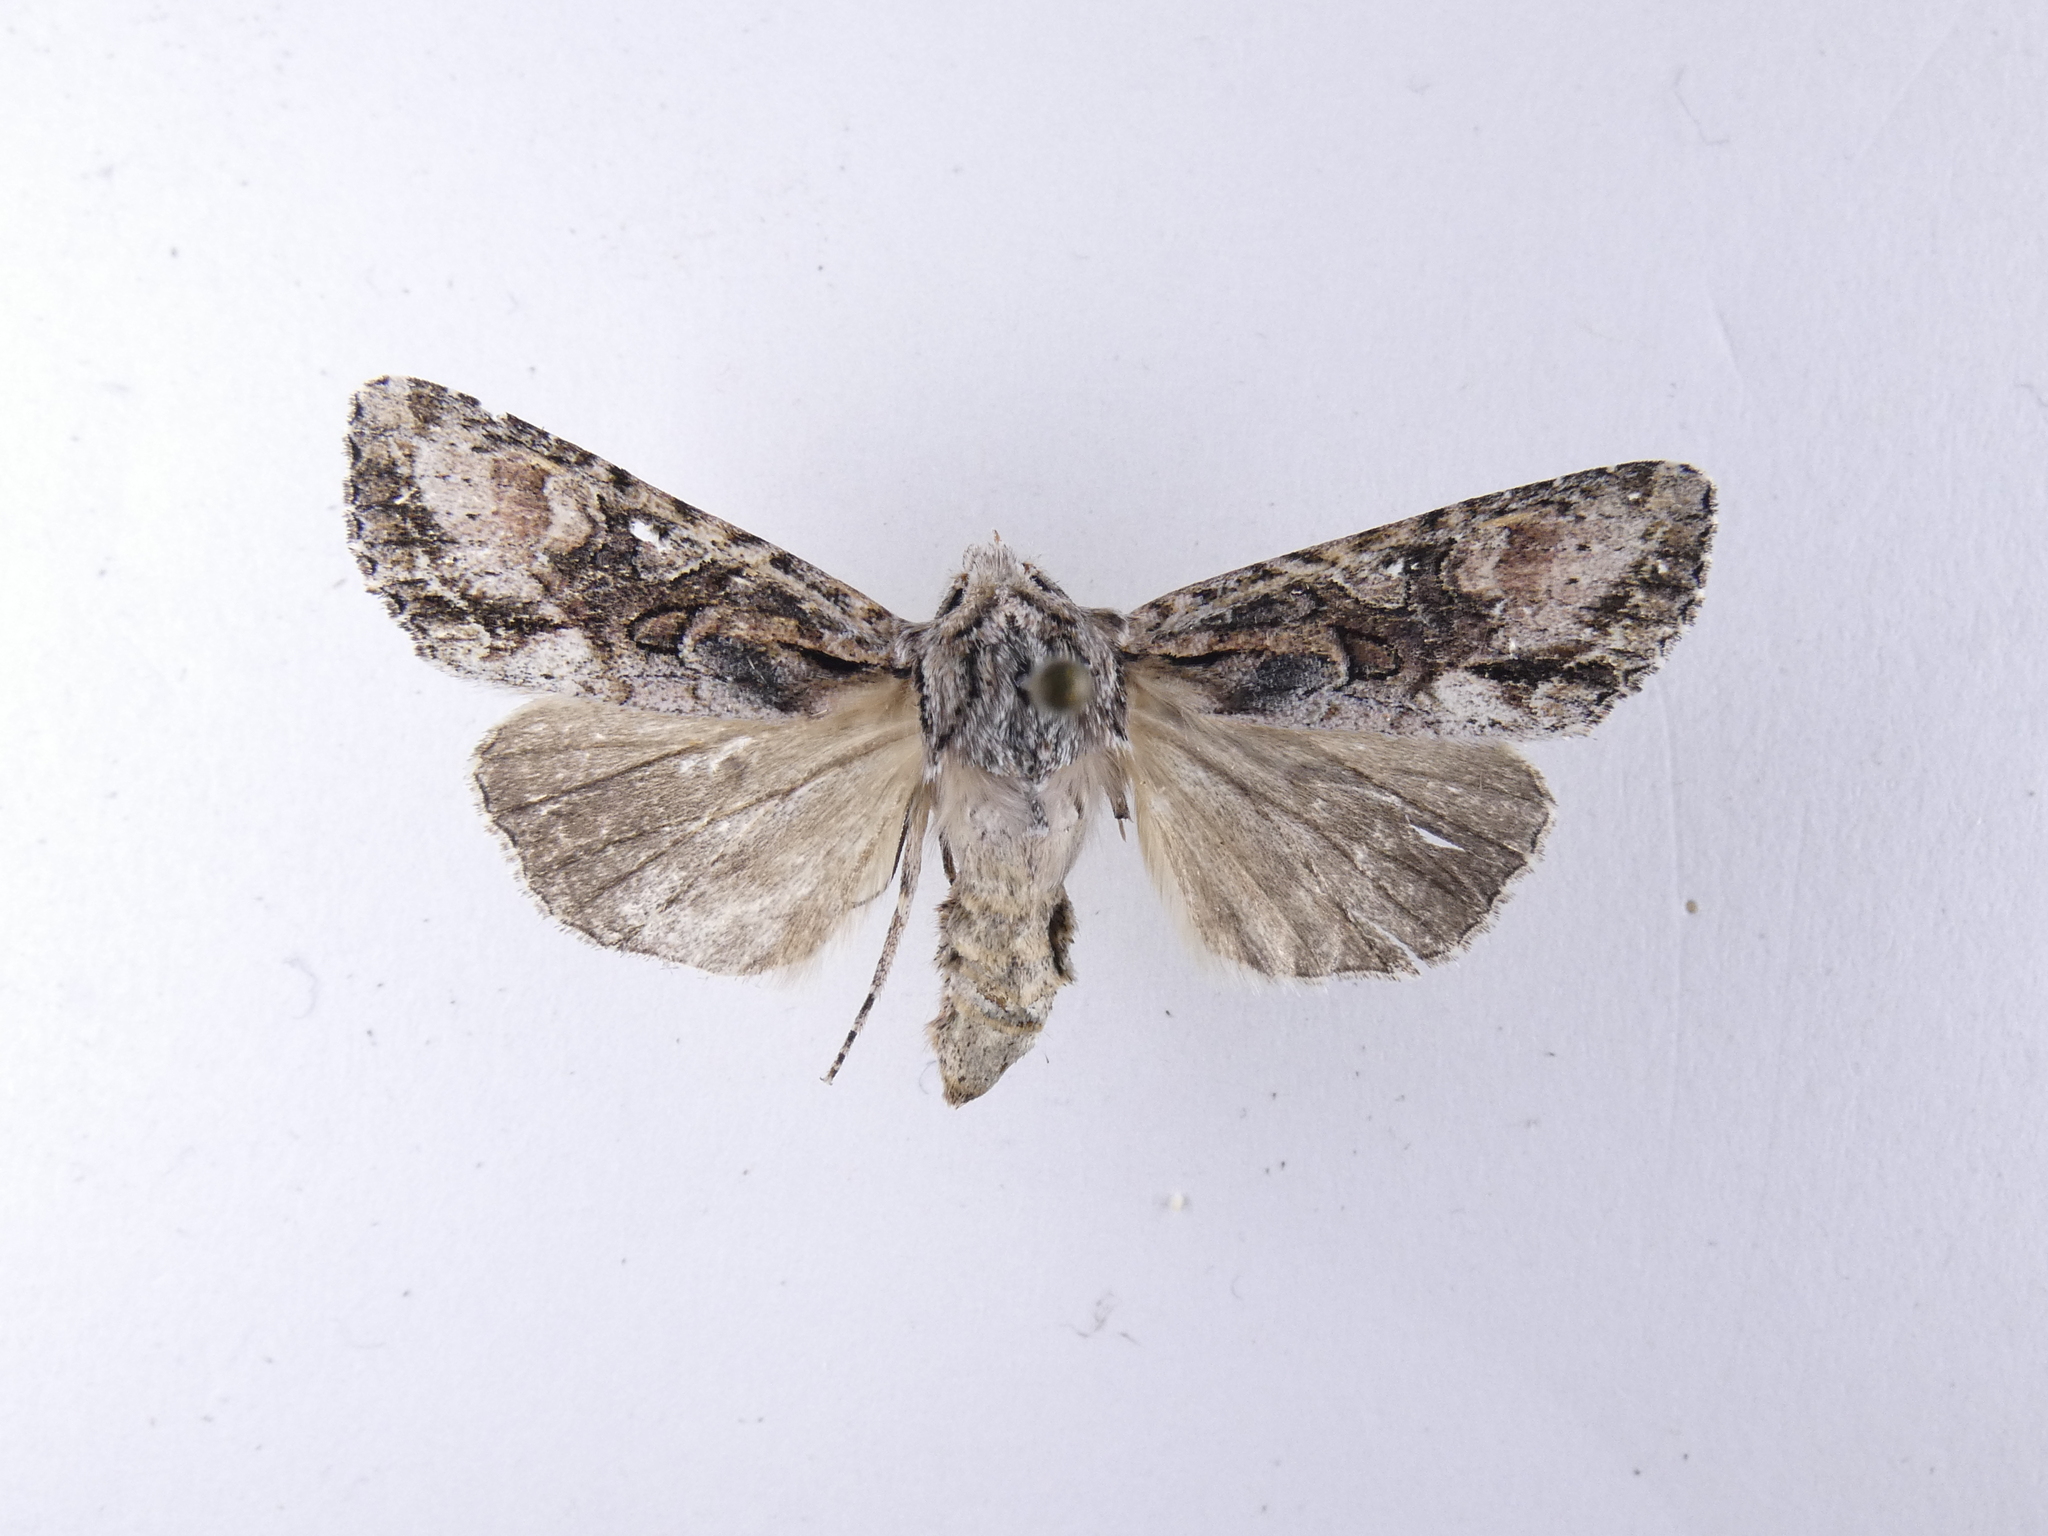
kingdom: Animalia
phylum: Arthropoda
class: Insecta
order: Lepidoptera
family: Noctuidae
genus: Ichneutica
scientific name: Ichneutica mutans
